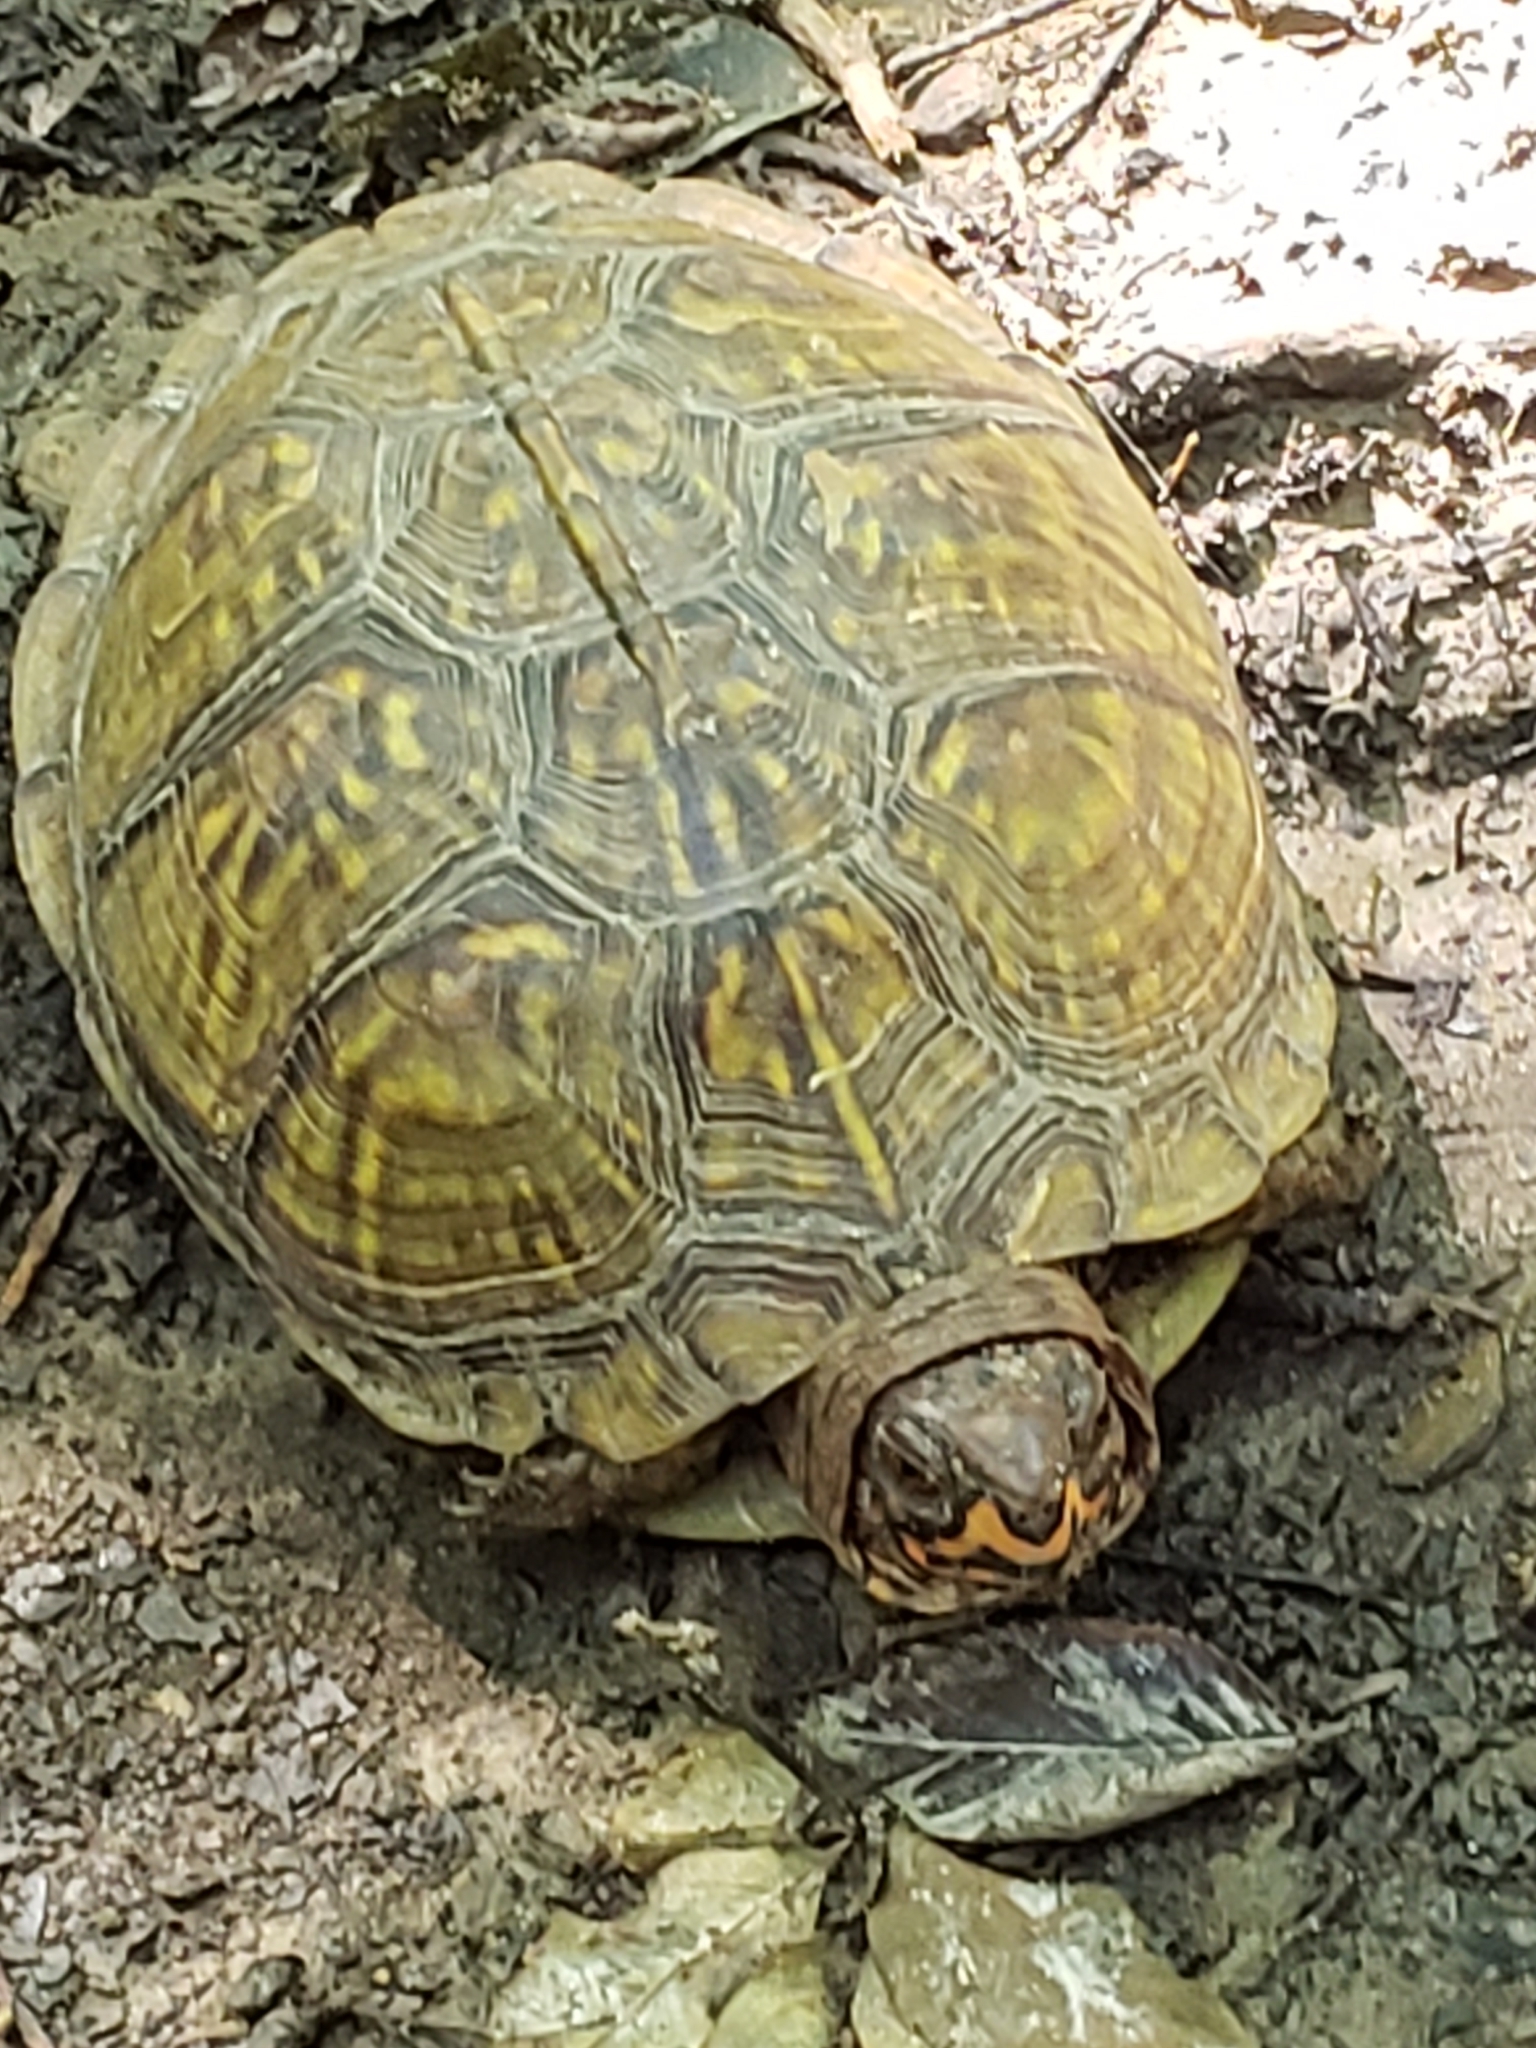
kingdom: Animalia
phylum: Chordata
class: Testudines
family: Emydidae
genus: Terrapene
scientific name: Terrapene carolina
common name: Common box turtle
